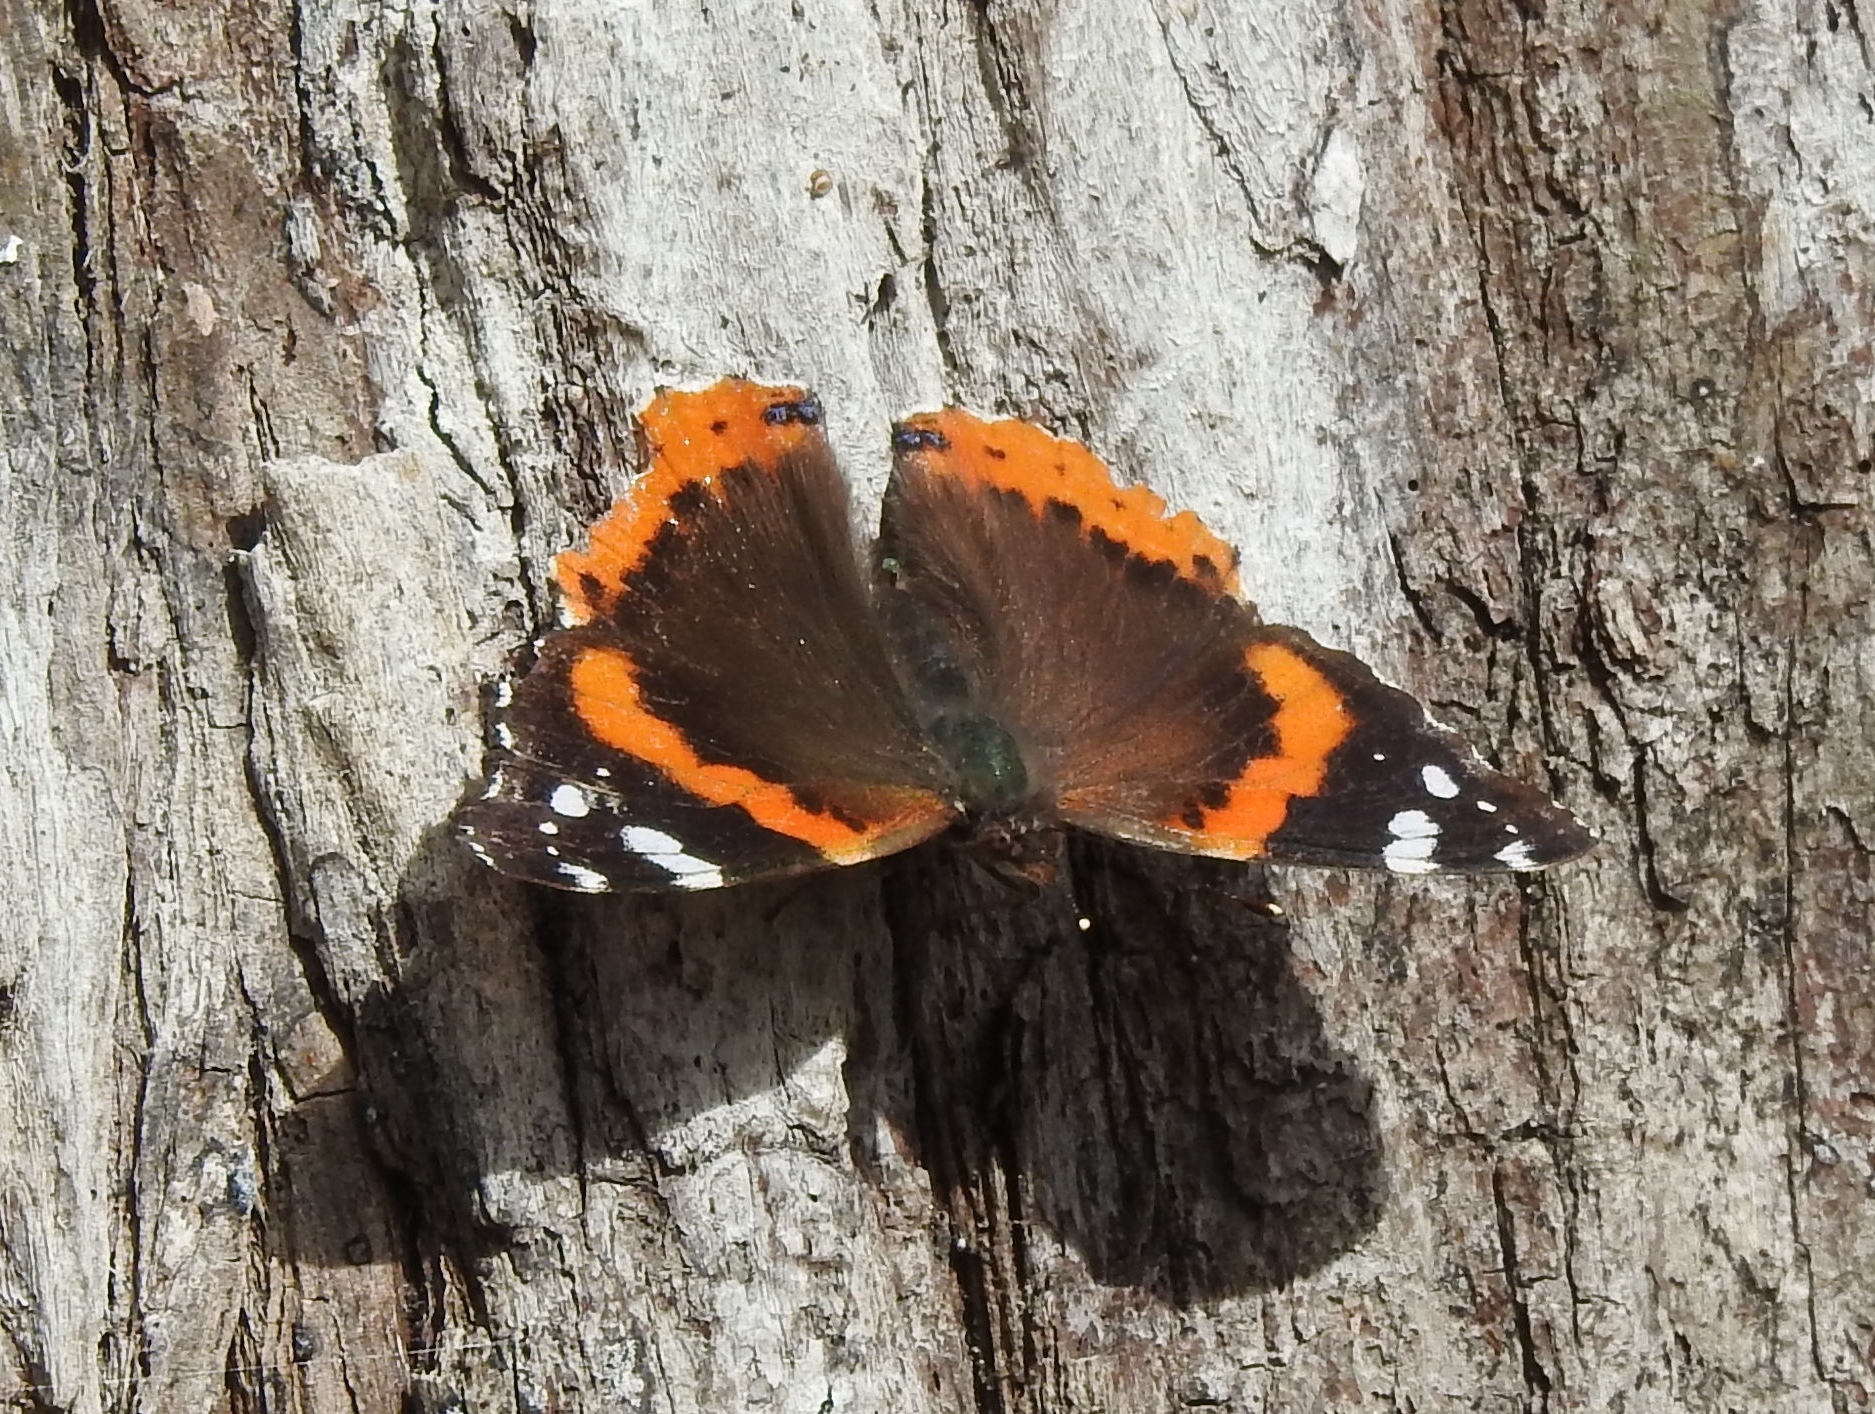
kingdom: Animalia
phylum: Arthropoda
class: Insecta
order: Lepidoptera
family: Nymphalidae
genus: Vanessa
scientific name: Vanessa atalanta
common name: Red admiral
